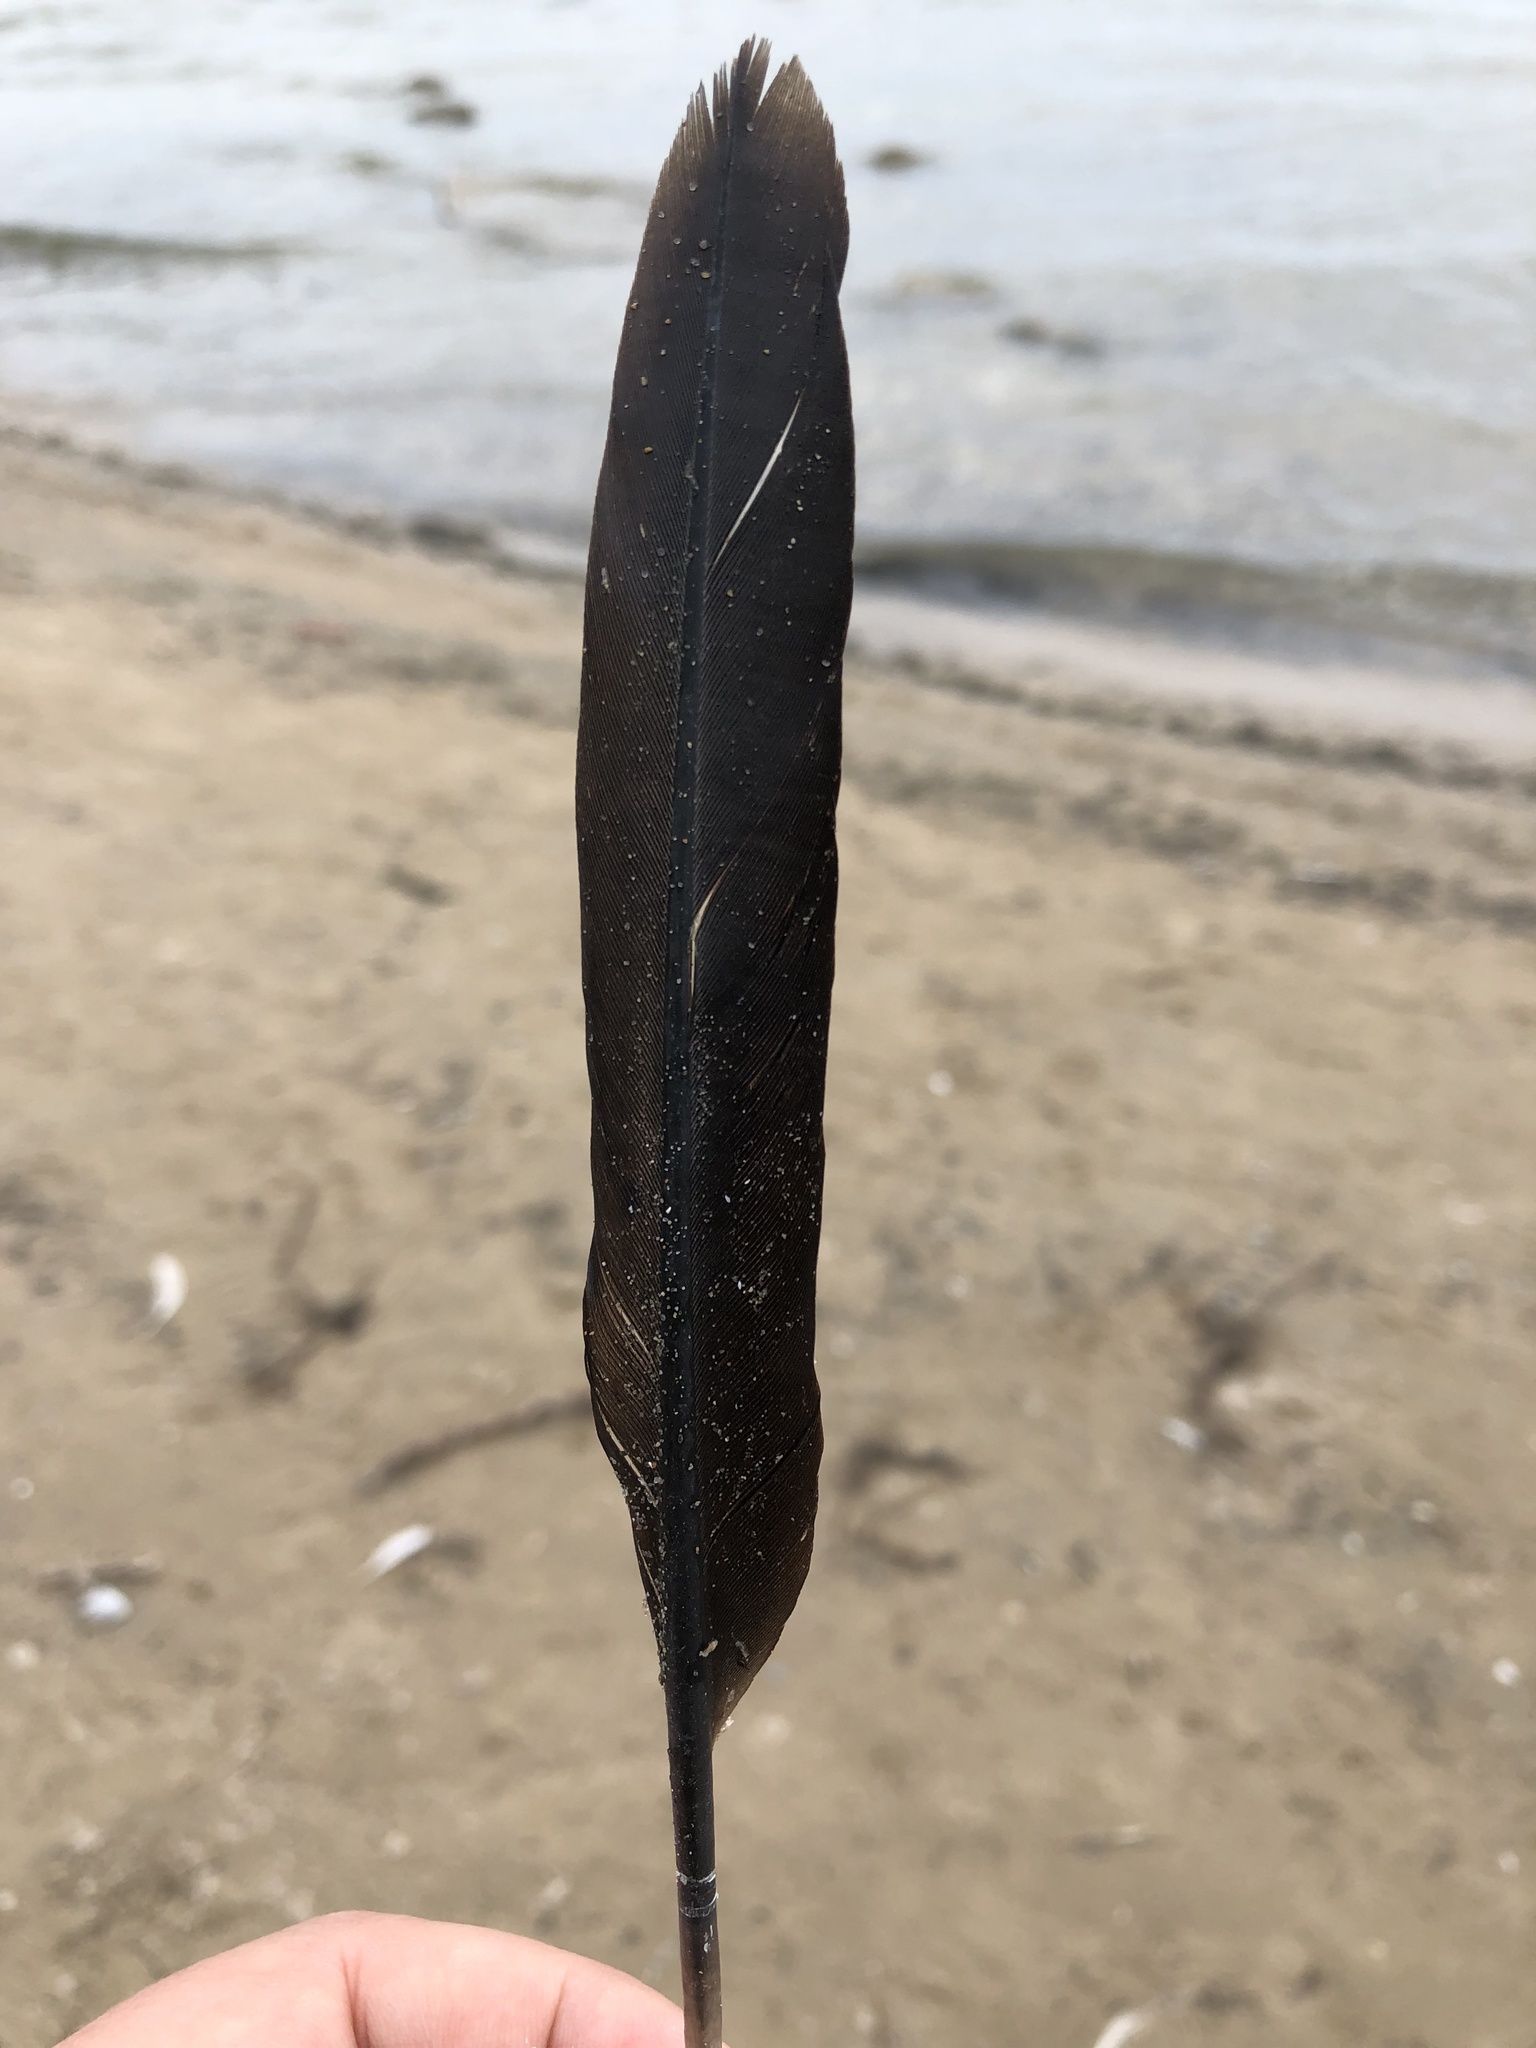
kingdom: Animalia
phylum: Chordata
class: Aves
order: Suliformes
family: Phalacrocoracidae
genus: Phalacrocorax
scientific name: Phalacrocorax auritus
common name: Double-crested cormorant
